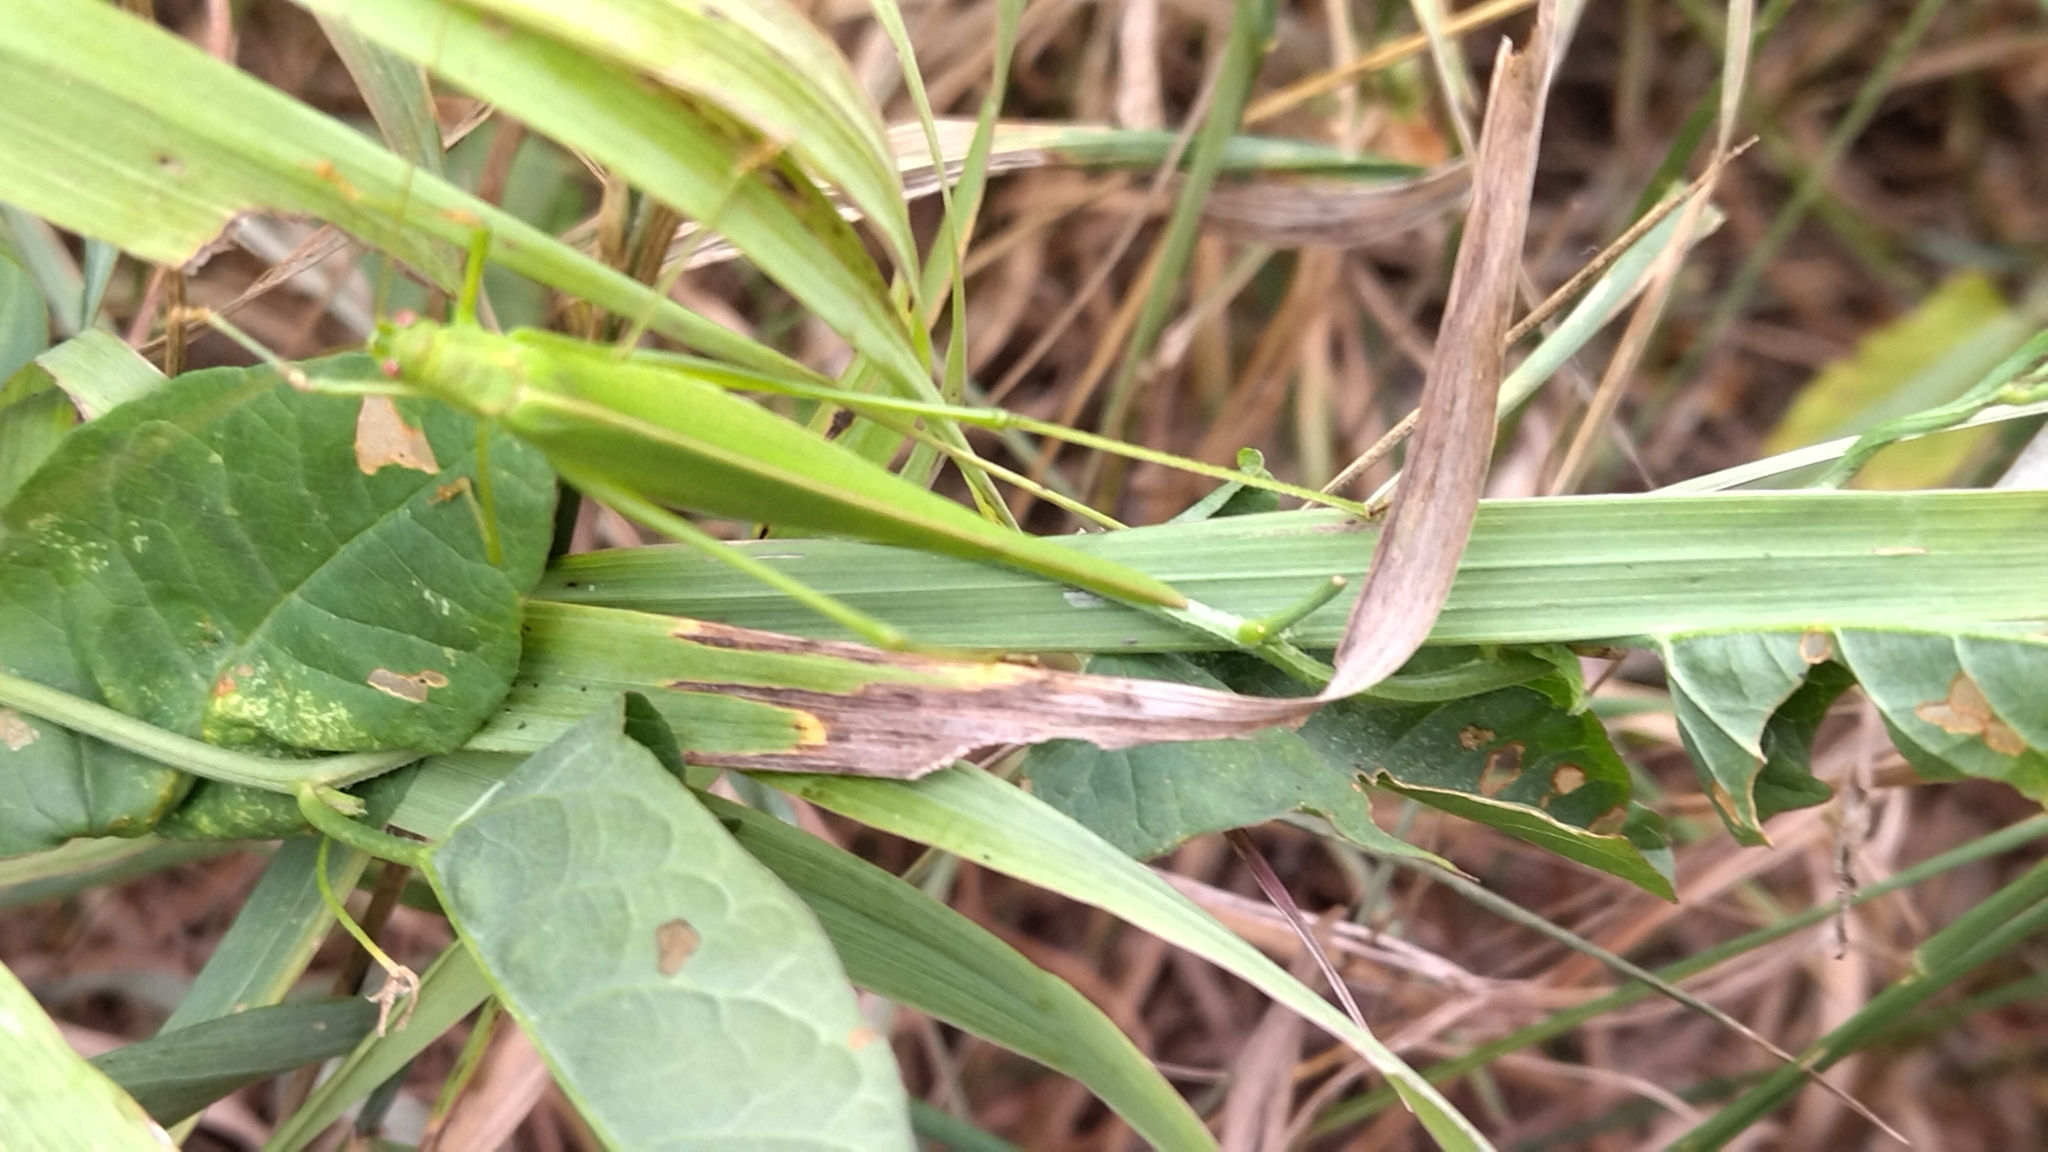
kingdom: Animalia
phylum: Arthropoda
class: Insecta
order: Orthoptera
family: Tettigoniidae
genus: Phaneroptera
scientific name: Phaneroptera falcata
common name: Sickle-bearing bush-cricket
